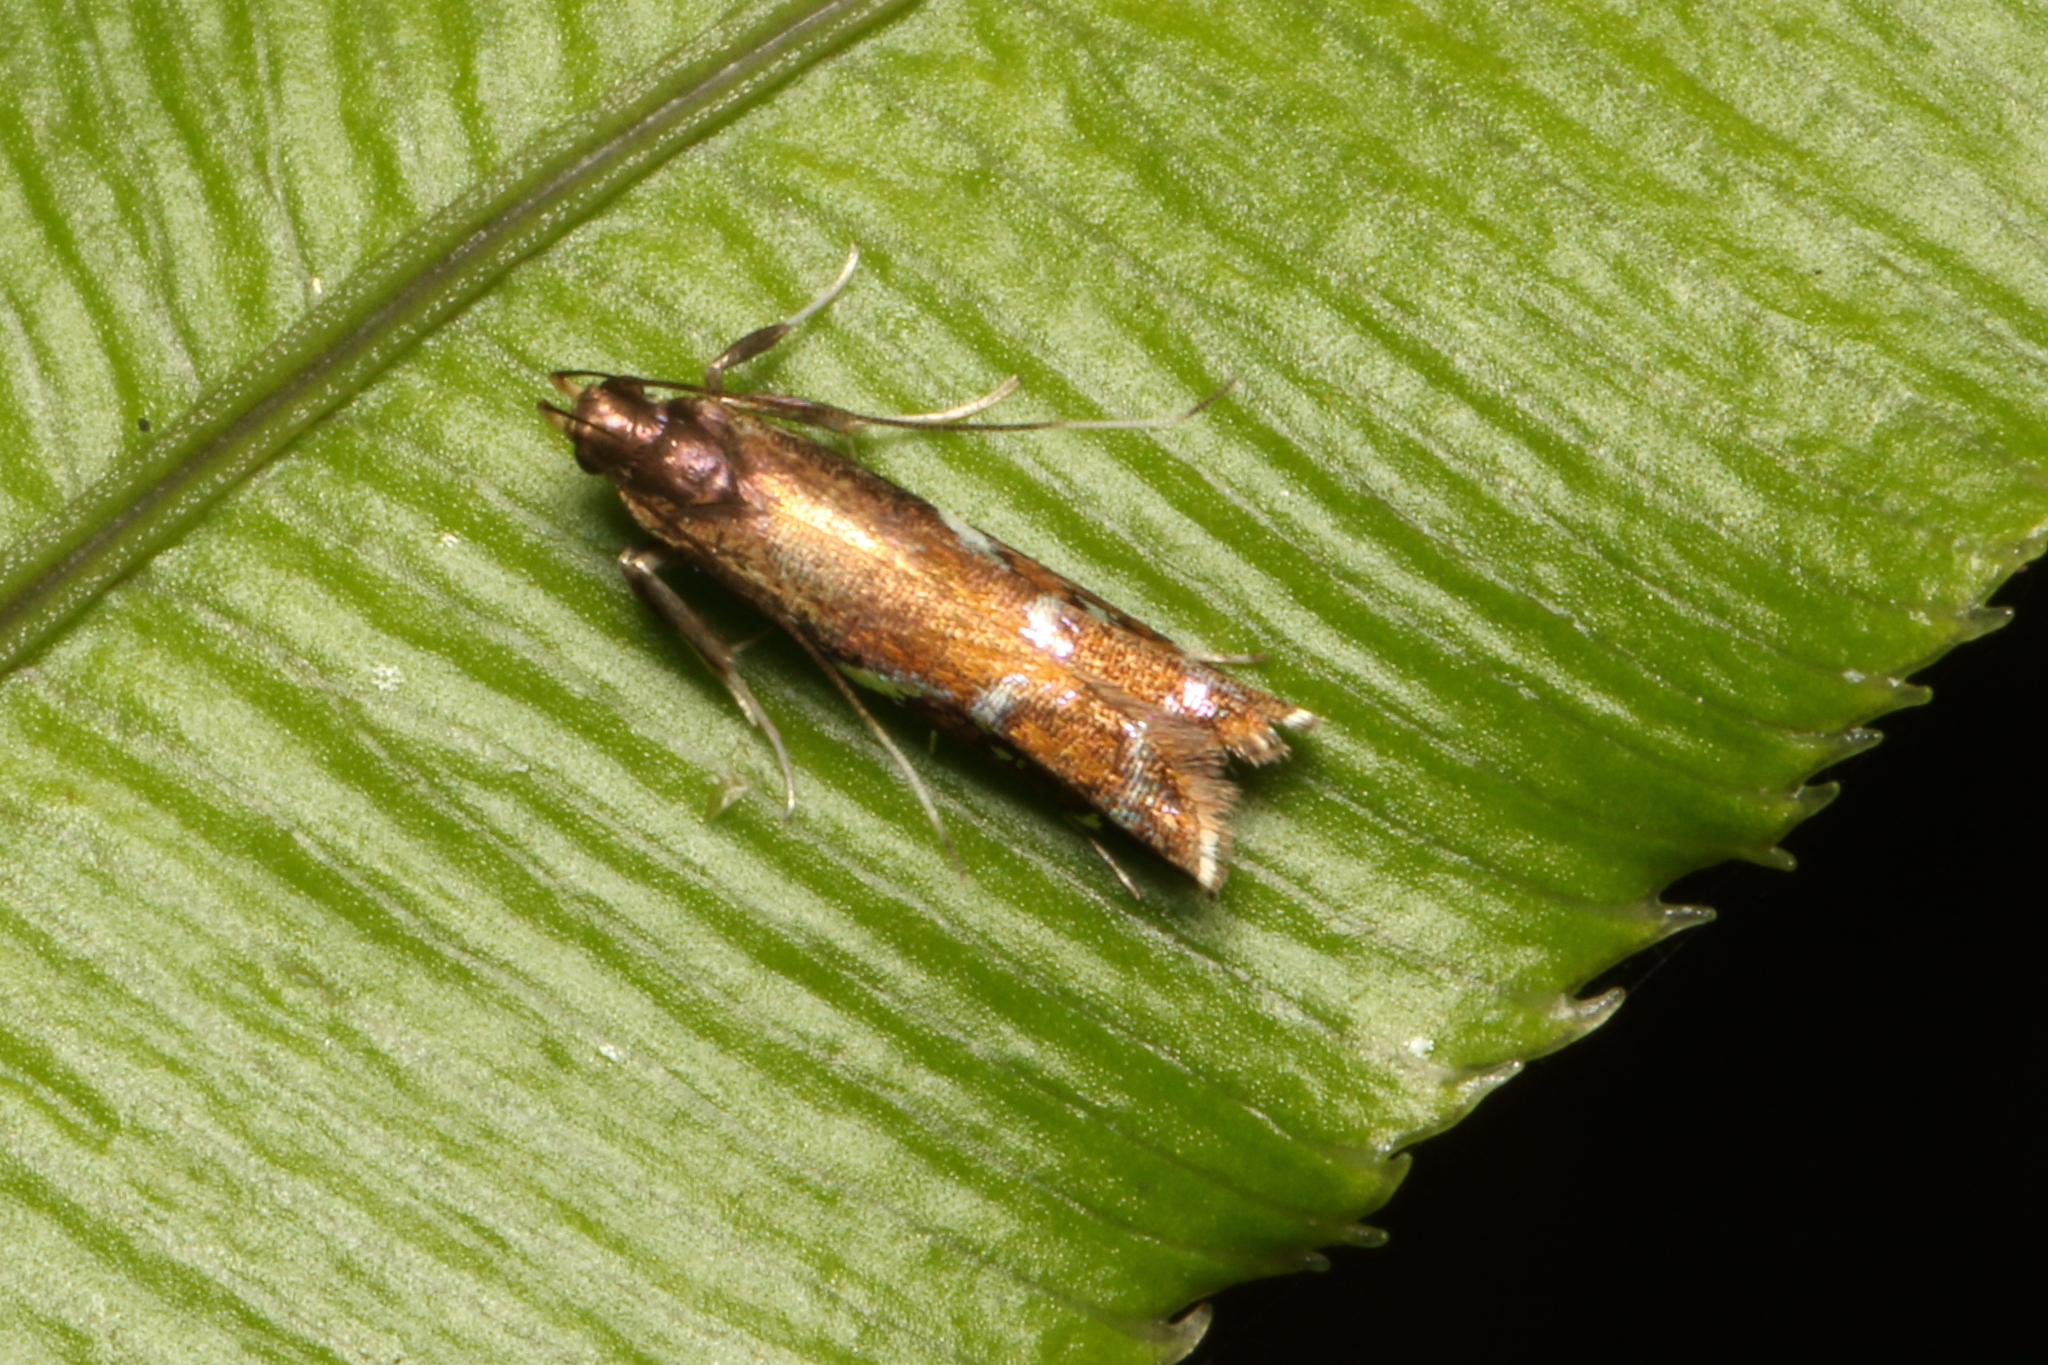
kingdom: Animalia
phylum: Arthropoda
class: Insecta
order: Lepidoptera
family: Depressariidae
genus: Compsistis
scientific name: Compsistis bifaciella
